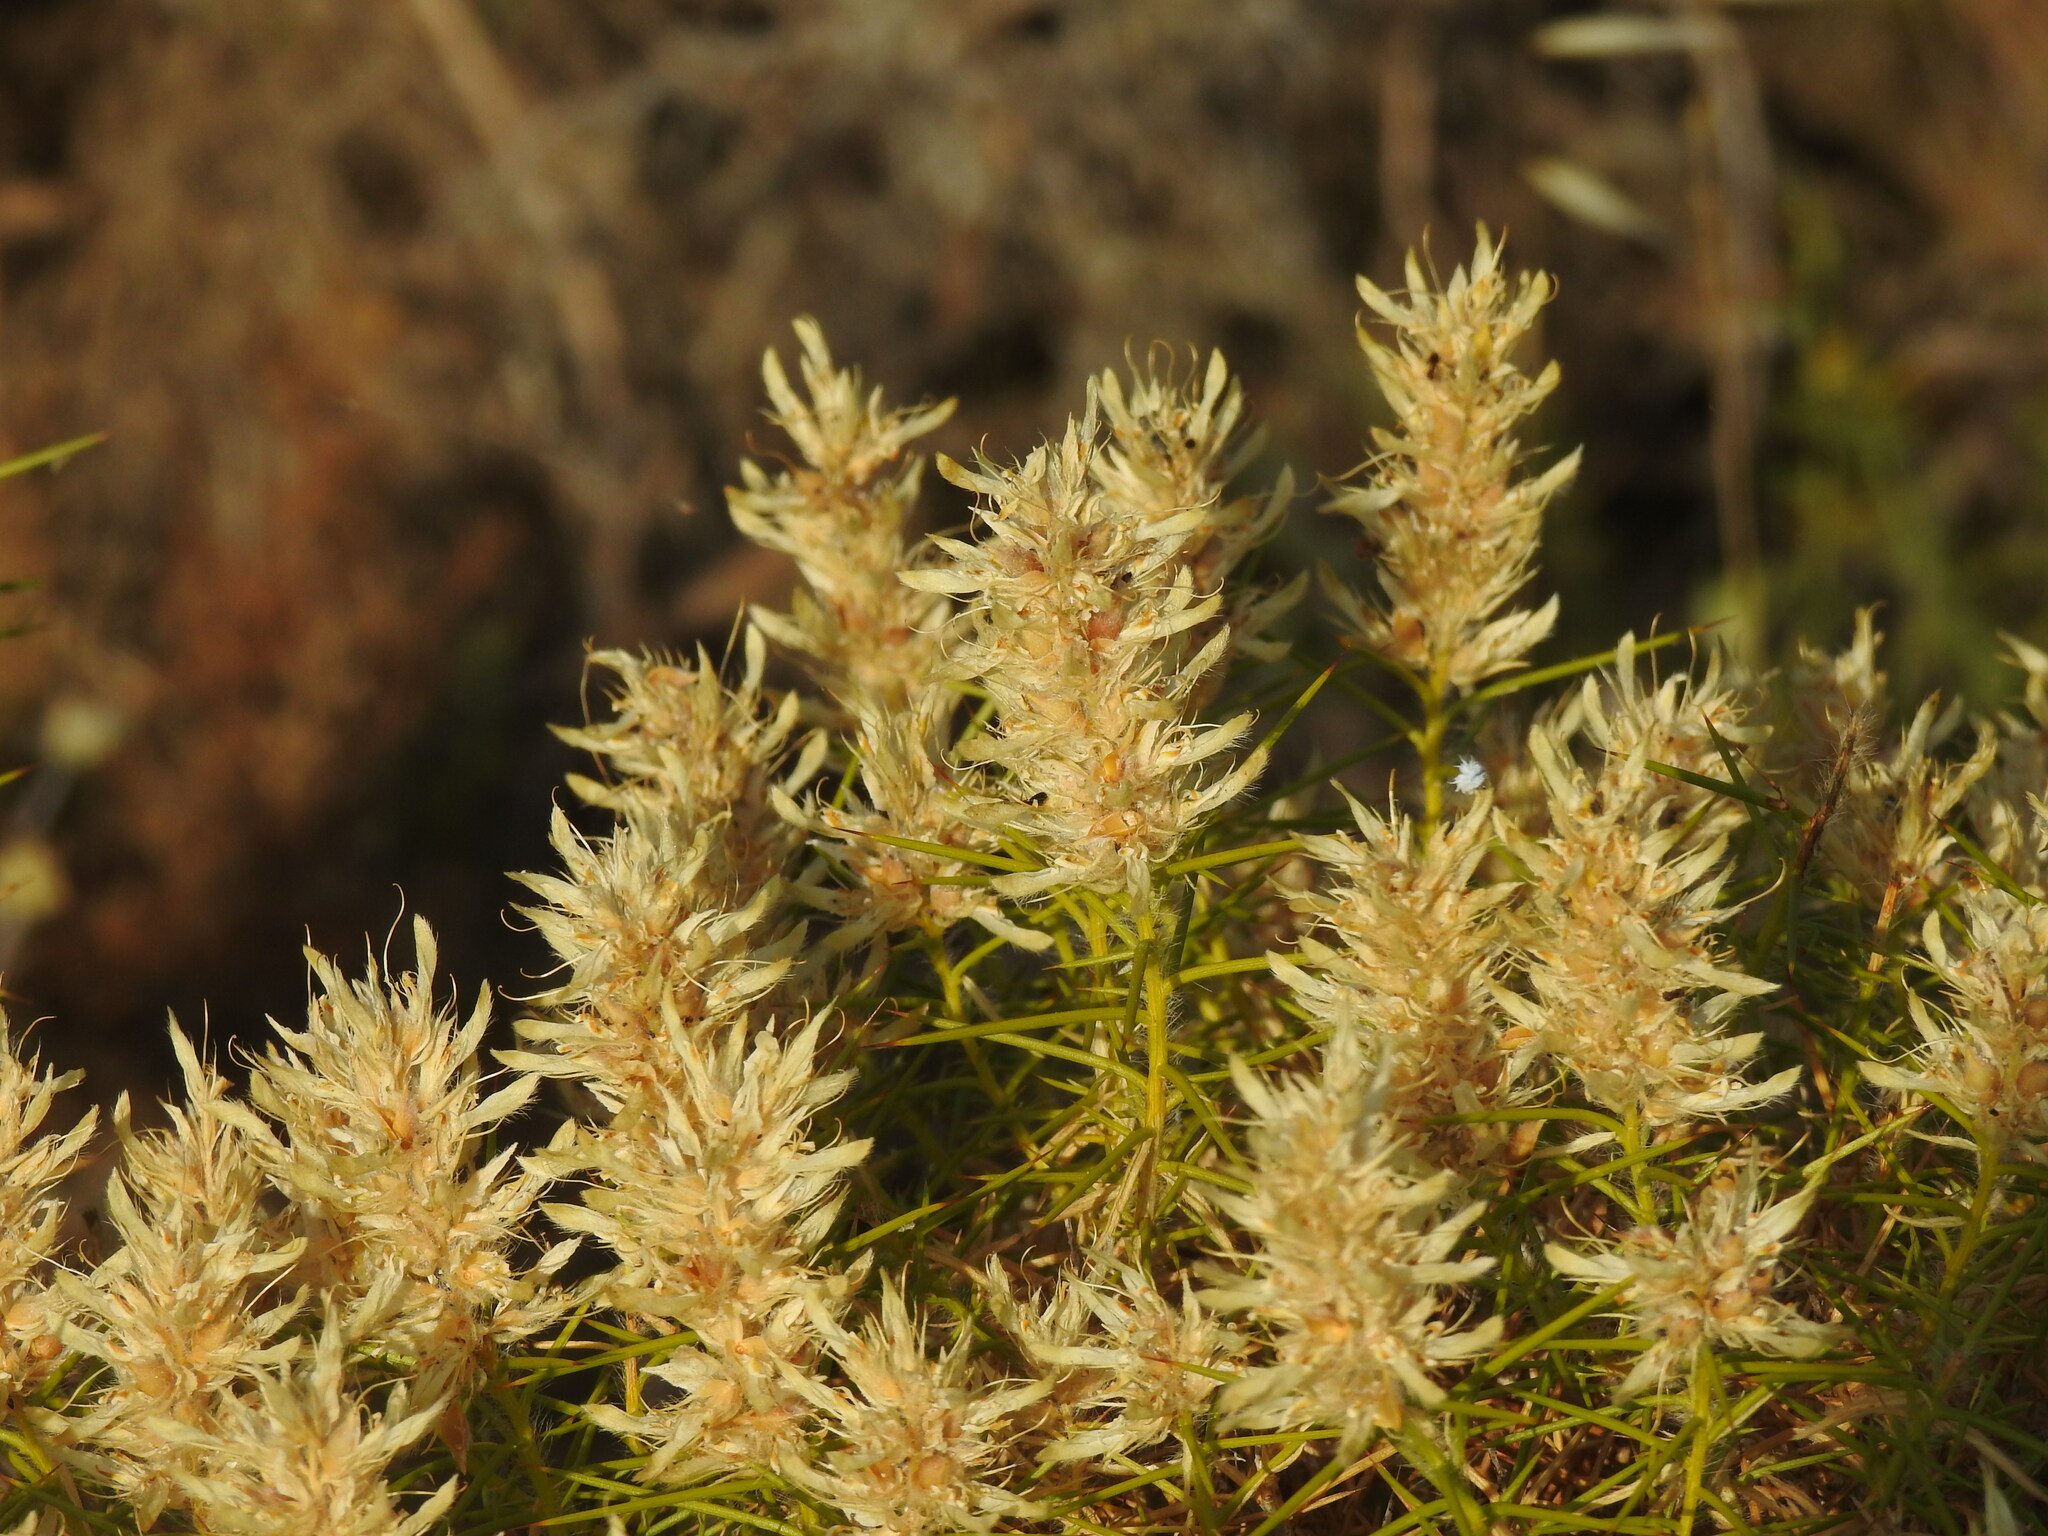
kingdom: Plantae
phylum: Tracheophyta
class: Magnoliopsida
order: Fabales
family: Fabaceae
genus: Genista
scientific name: Genista hirsuta
